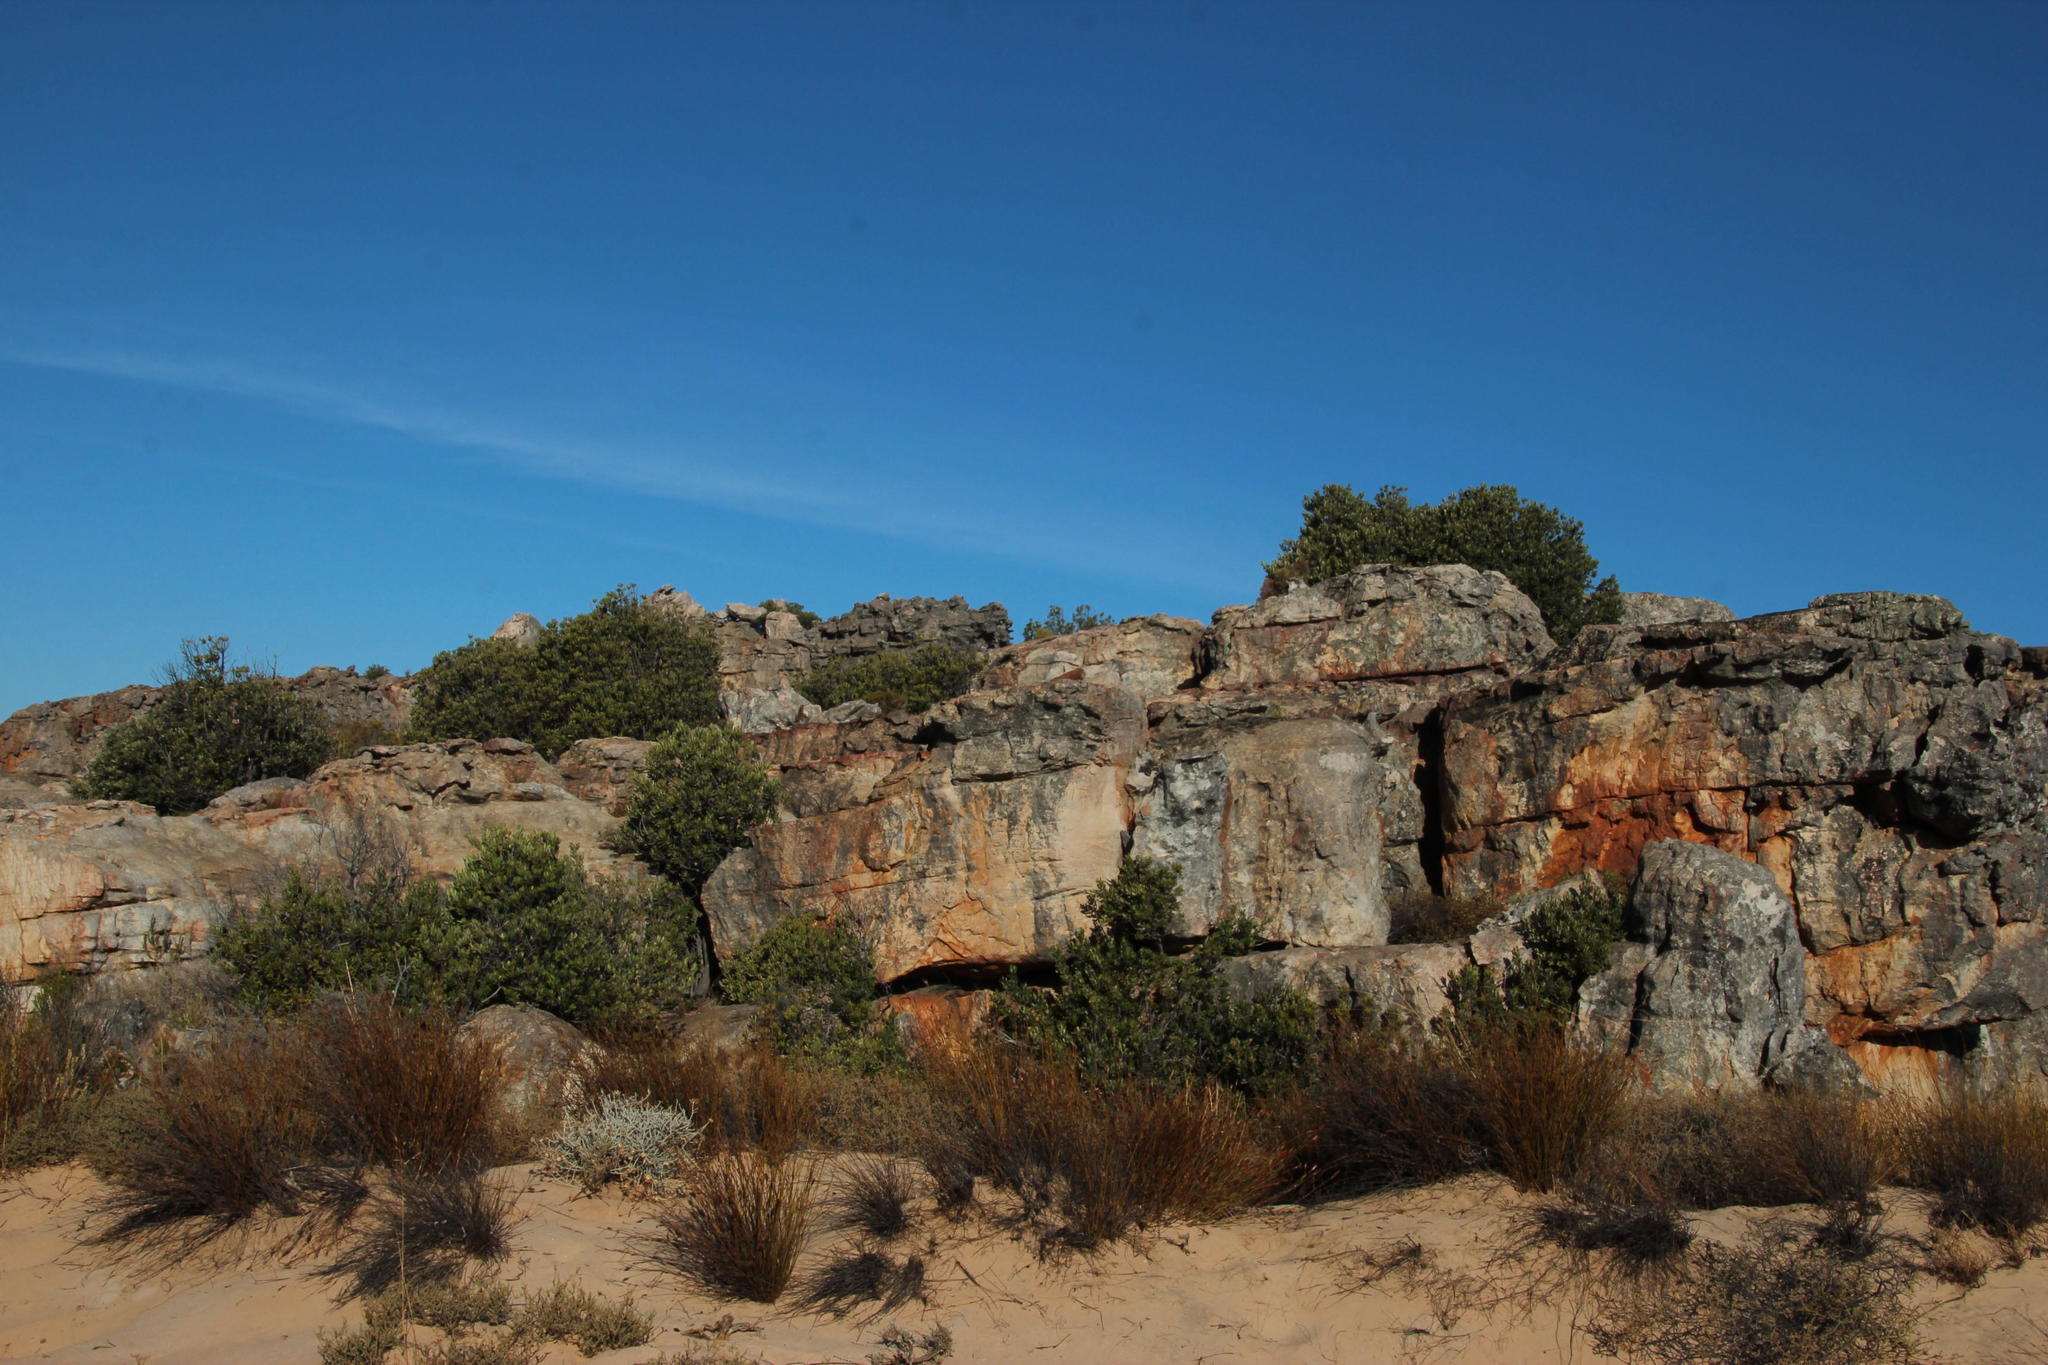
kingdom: Plantae
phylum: Tracheophyta
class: Magnoliopsida
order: Sapindales
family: Anacardiaceae
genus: Heeria
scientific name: Heeria argentea
